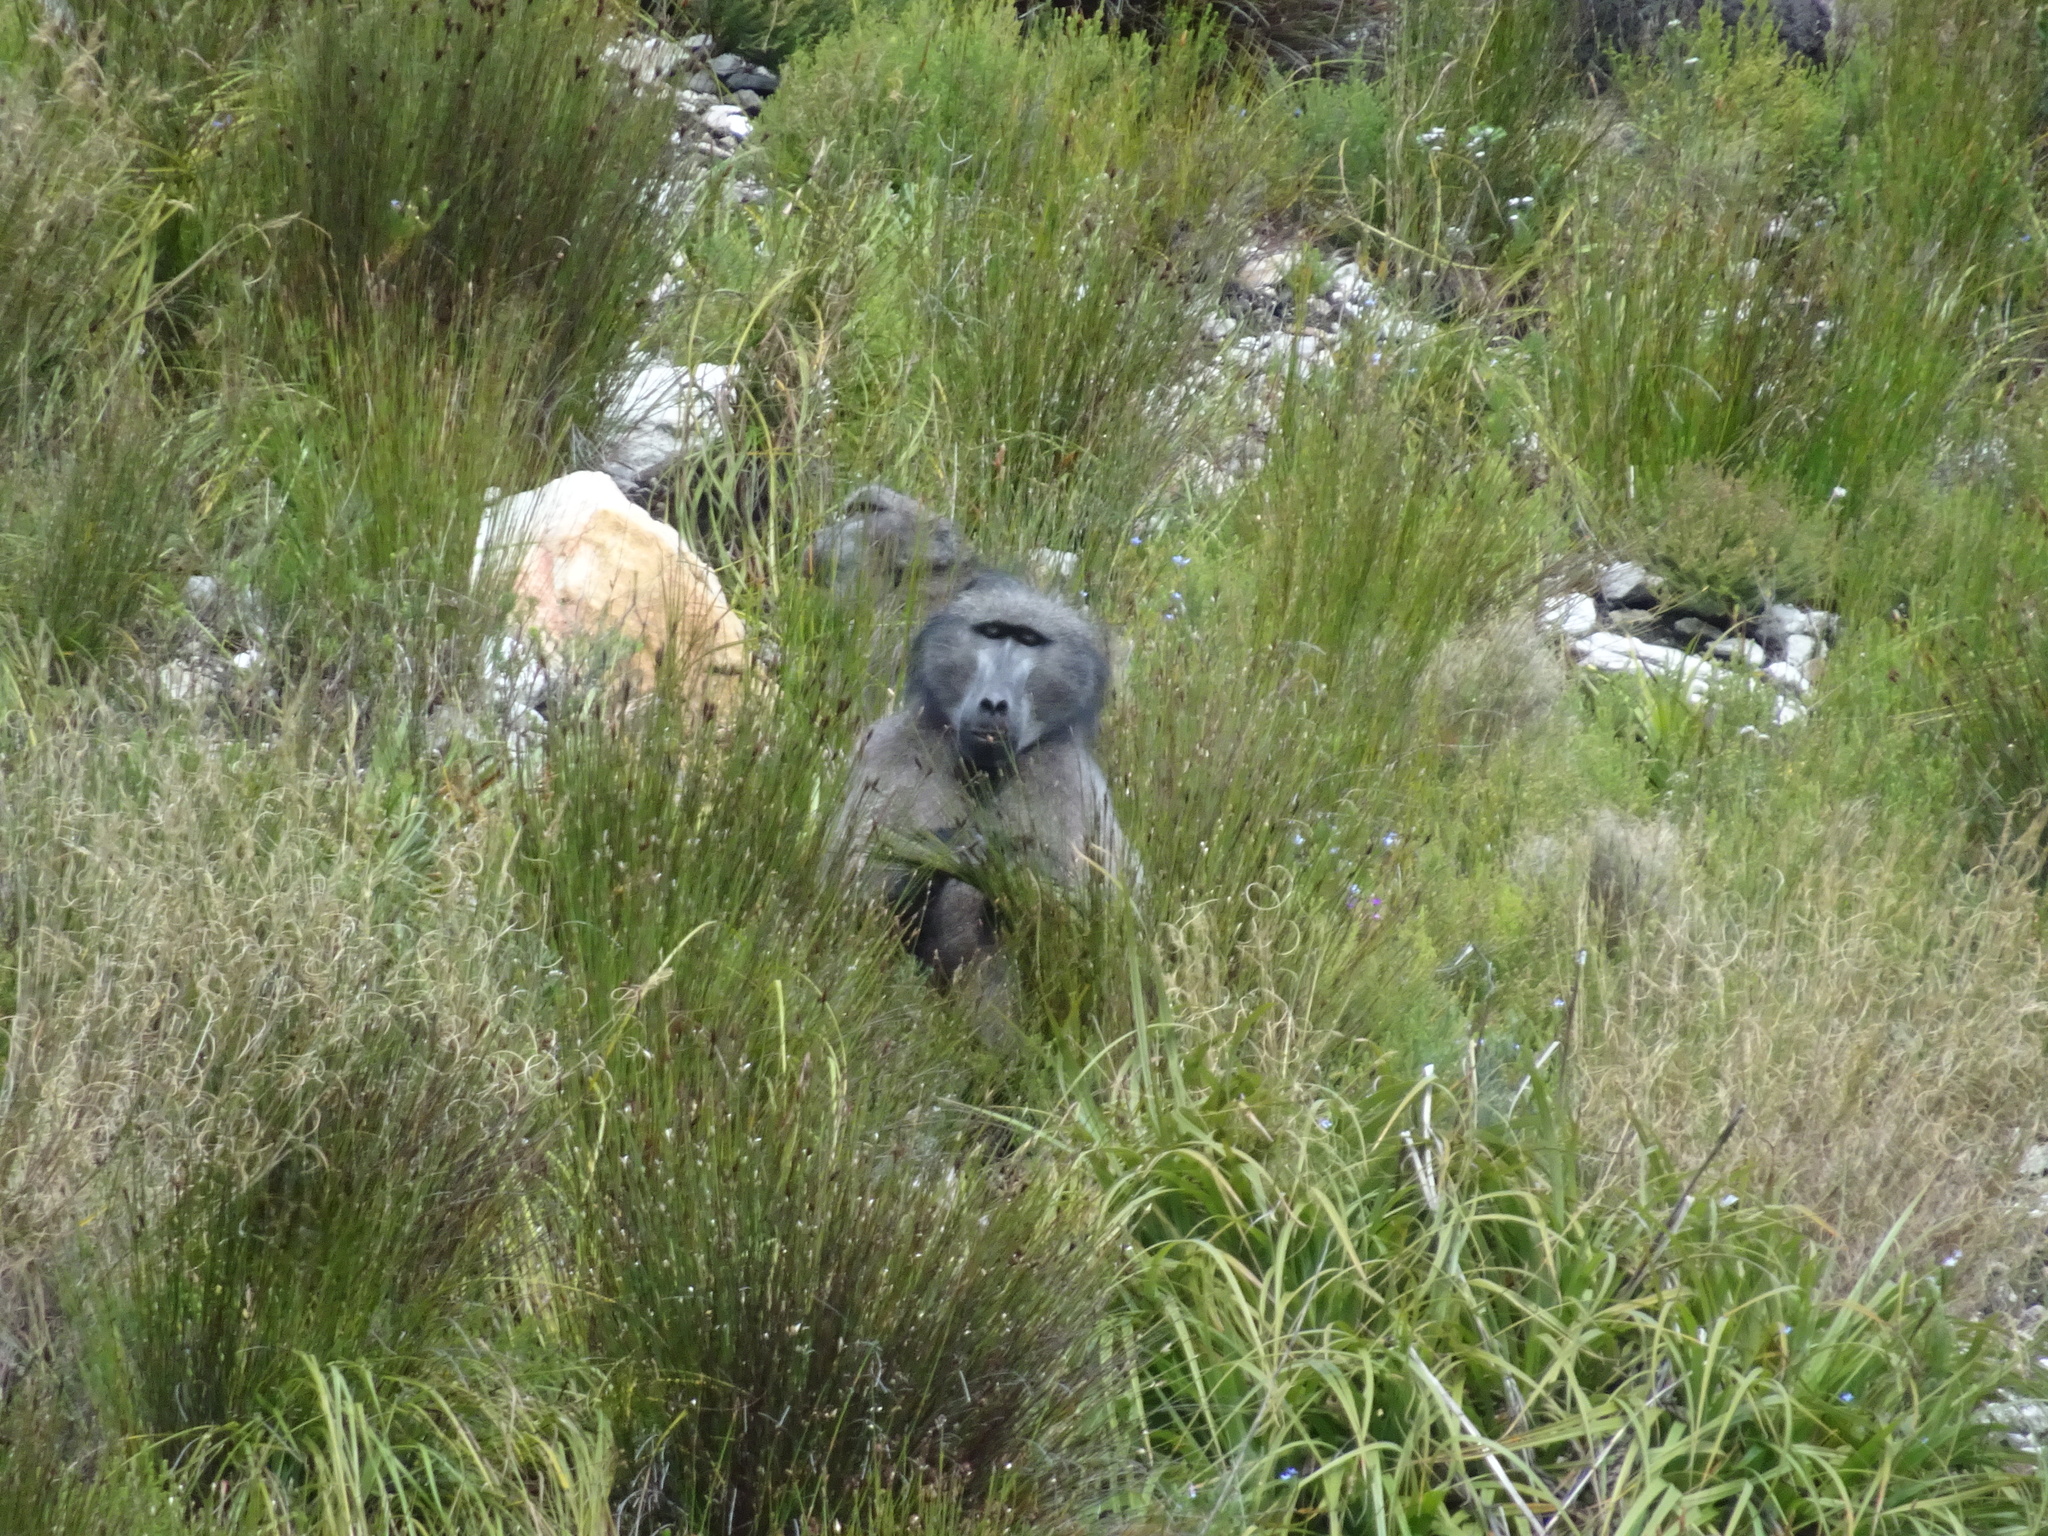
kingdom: Animalia
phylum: Chordata
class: Mammalia
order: Primates
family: Cercopithecidae
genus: Papio
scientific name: Papio ursinus
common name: Chacma baboon
